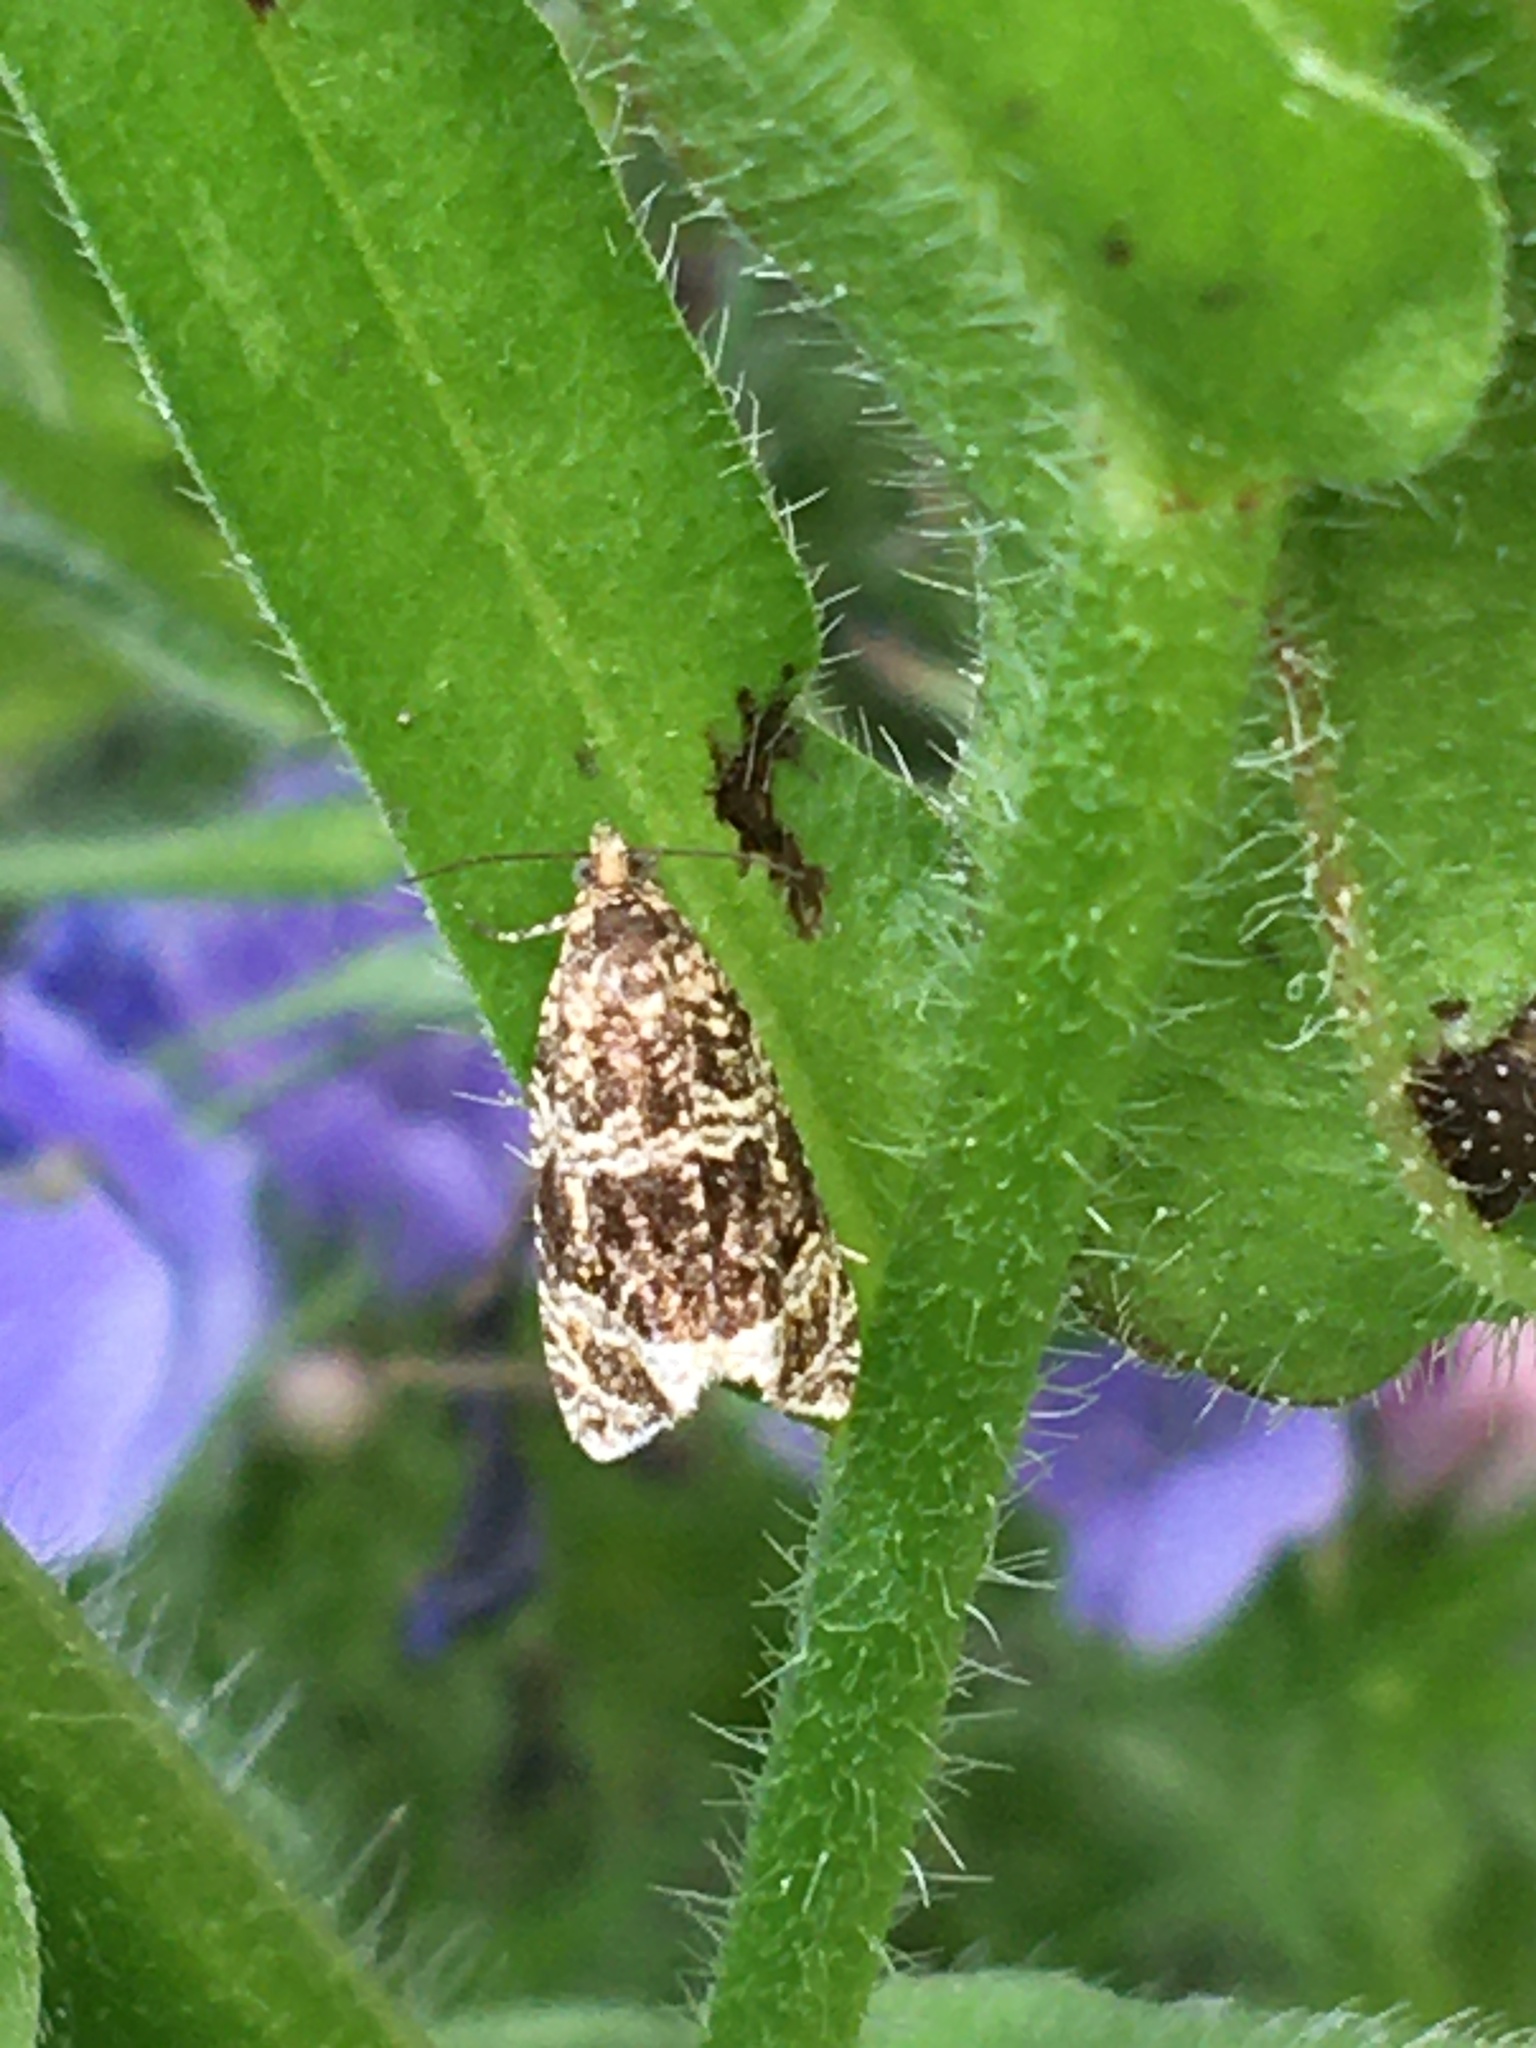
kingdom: Animalia
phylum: Arthropoda
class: Insecta
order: Lepidoptera
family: Tortricidae
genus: Syricoris
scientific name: Syricoris lacunana
